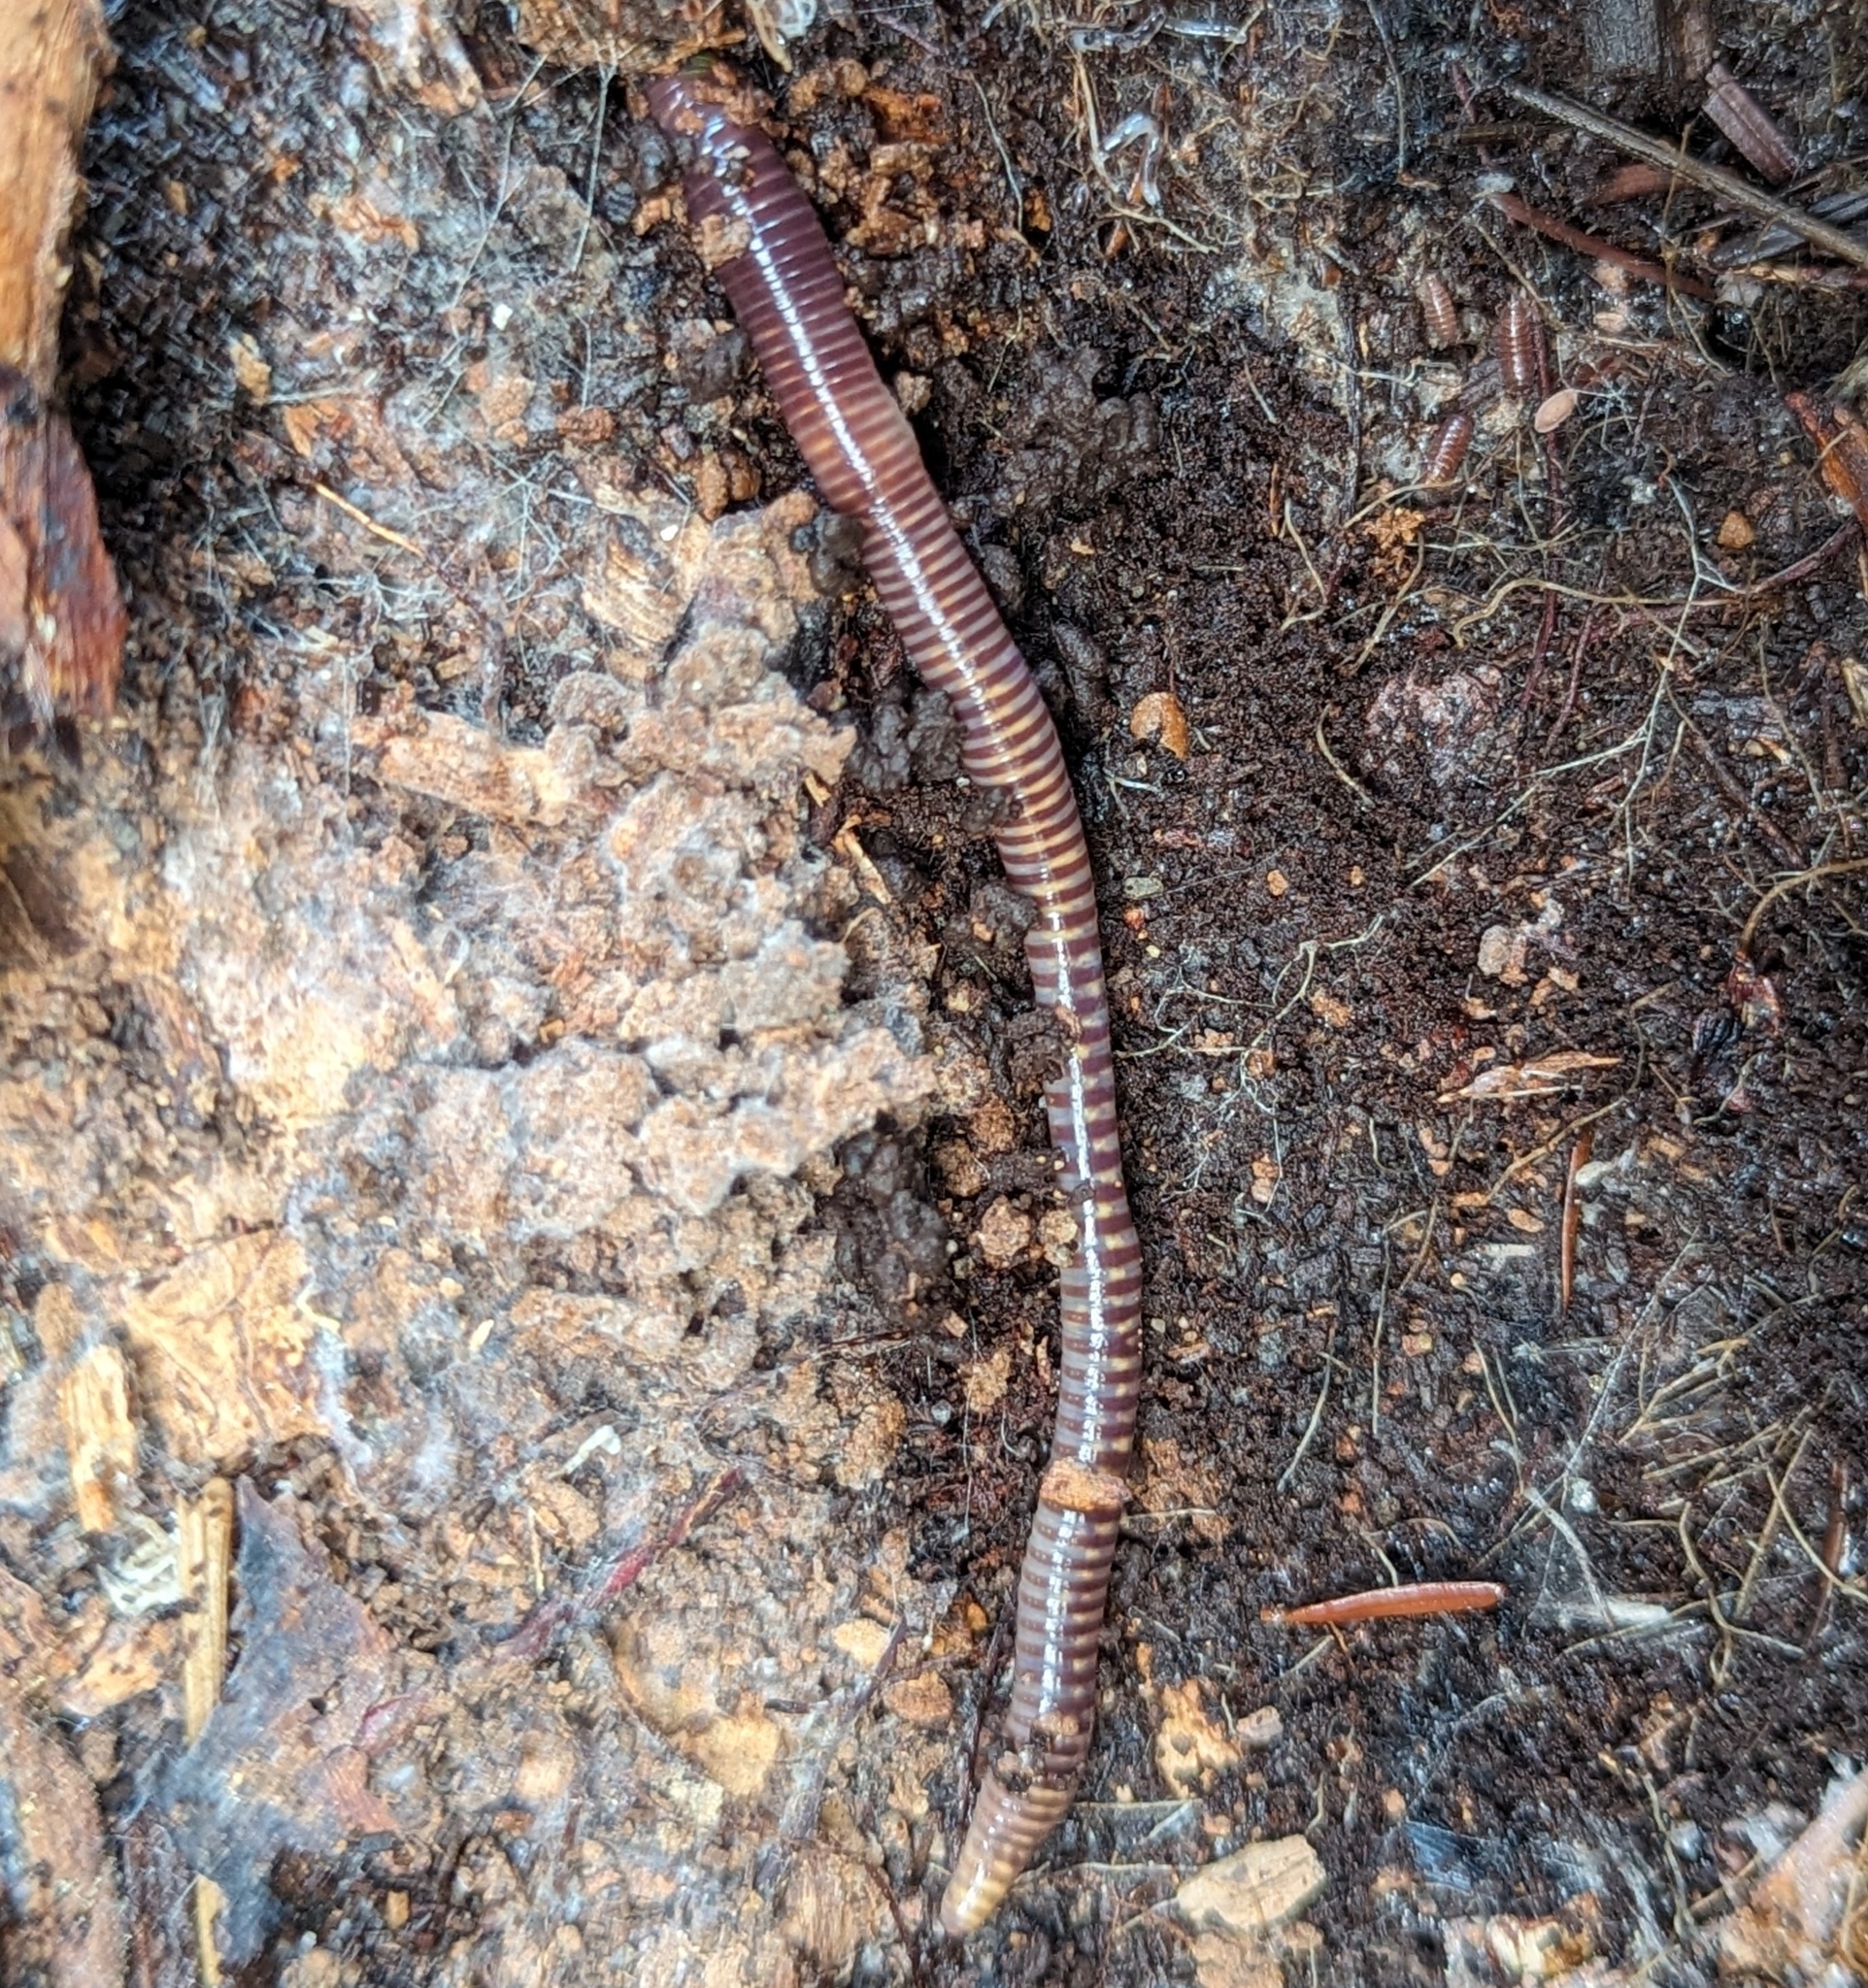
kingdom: Animalia
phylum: Annelida
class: Clitellata
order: Crassiclitellata
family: Lumbricidae
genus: Eisenia
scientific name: Eisenia fetida
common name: Red wiggler
